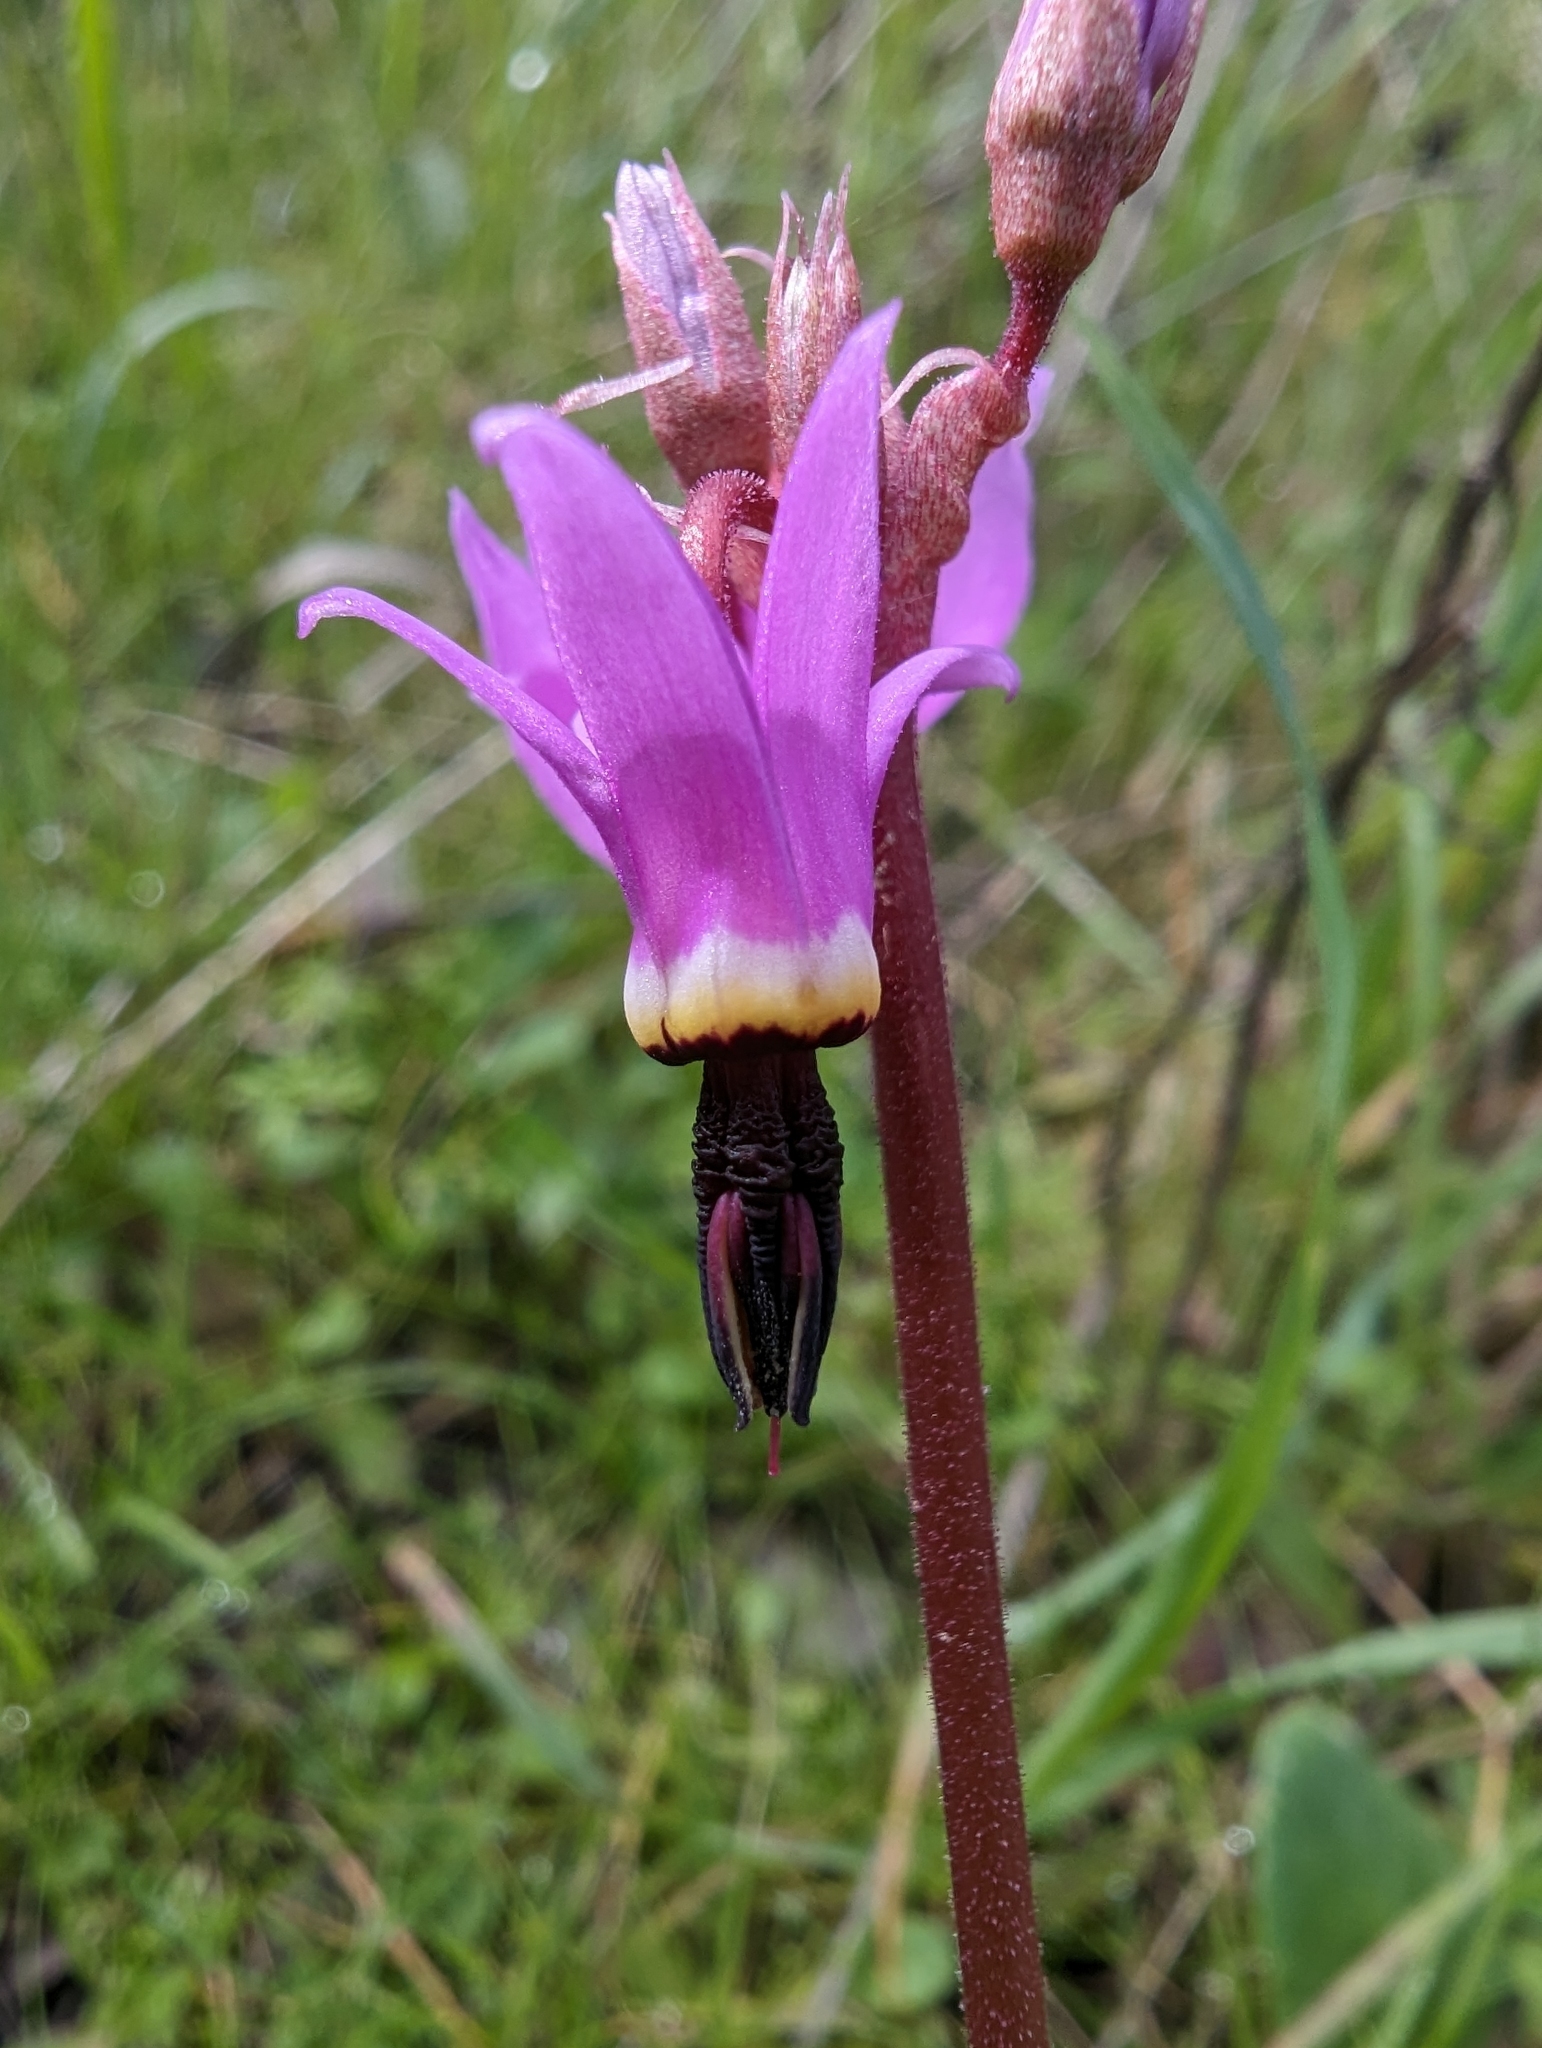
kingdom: Plantae
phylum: Tracheophyta
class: Magnoliopsida
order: Ericales
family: Primulaceae
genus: Dodecatheon
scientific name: Dodecatheon hendersonii
